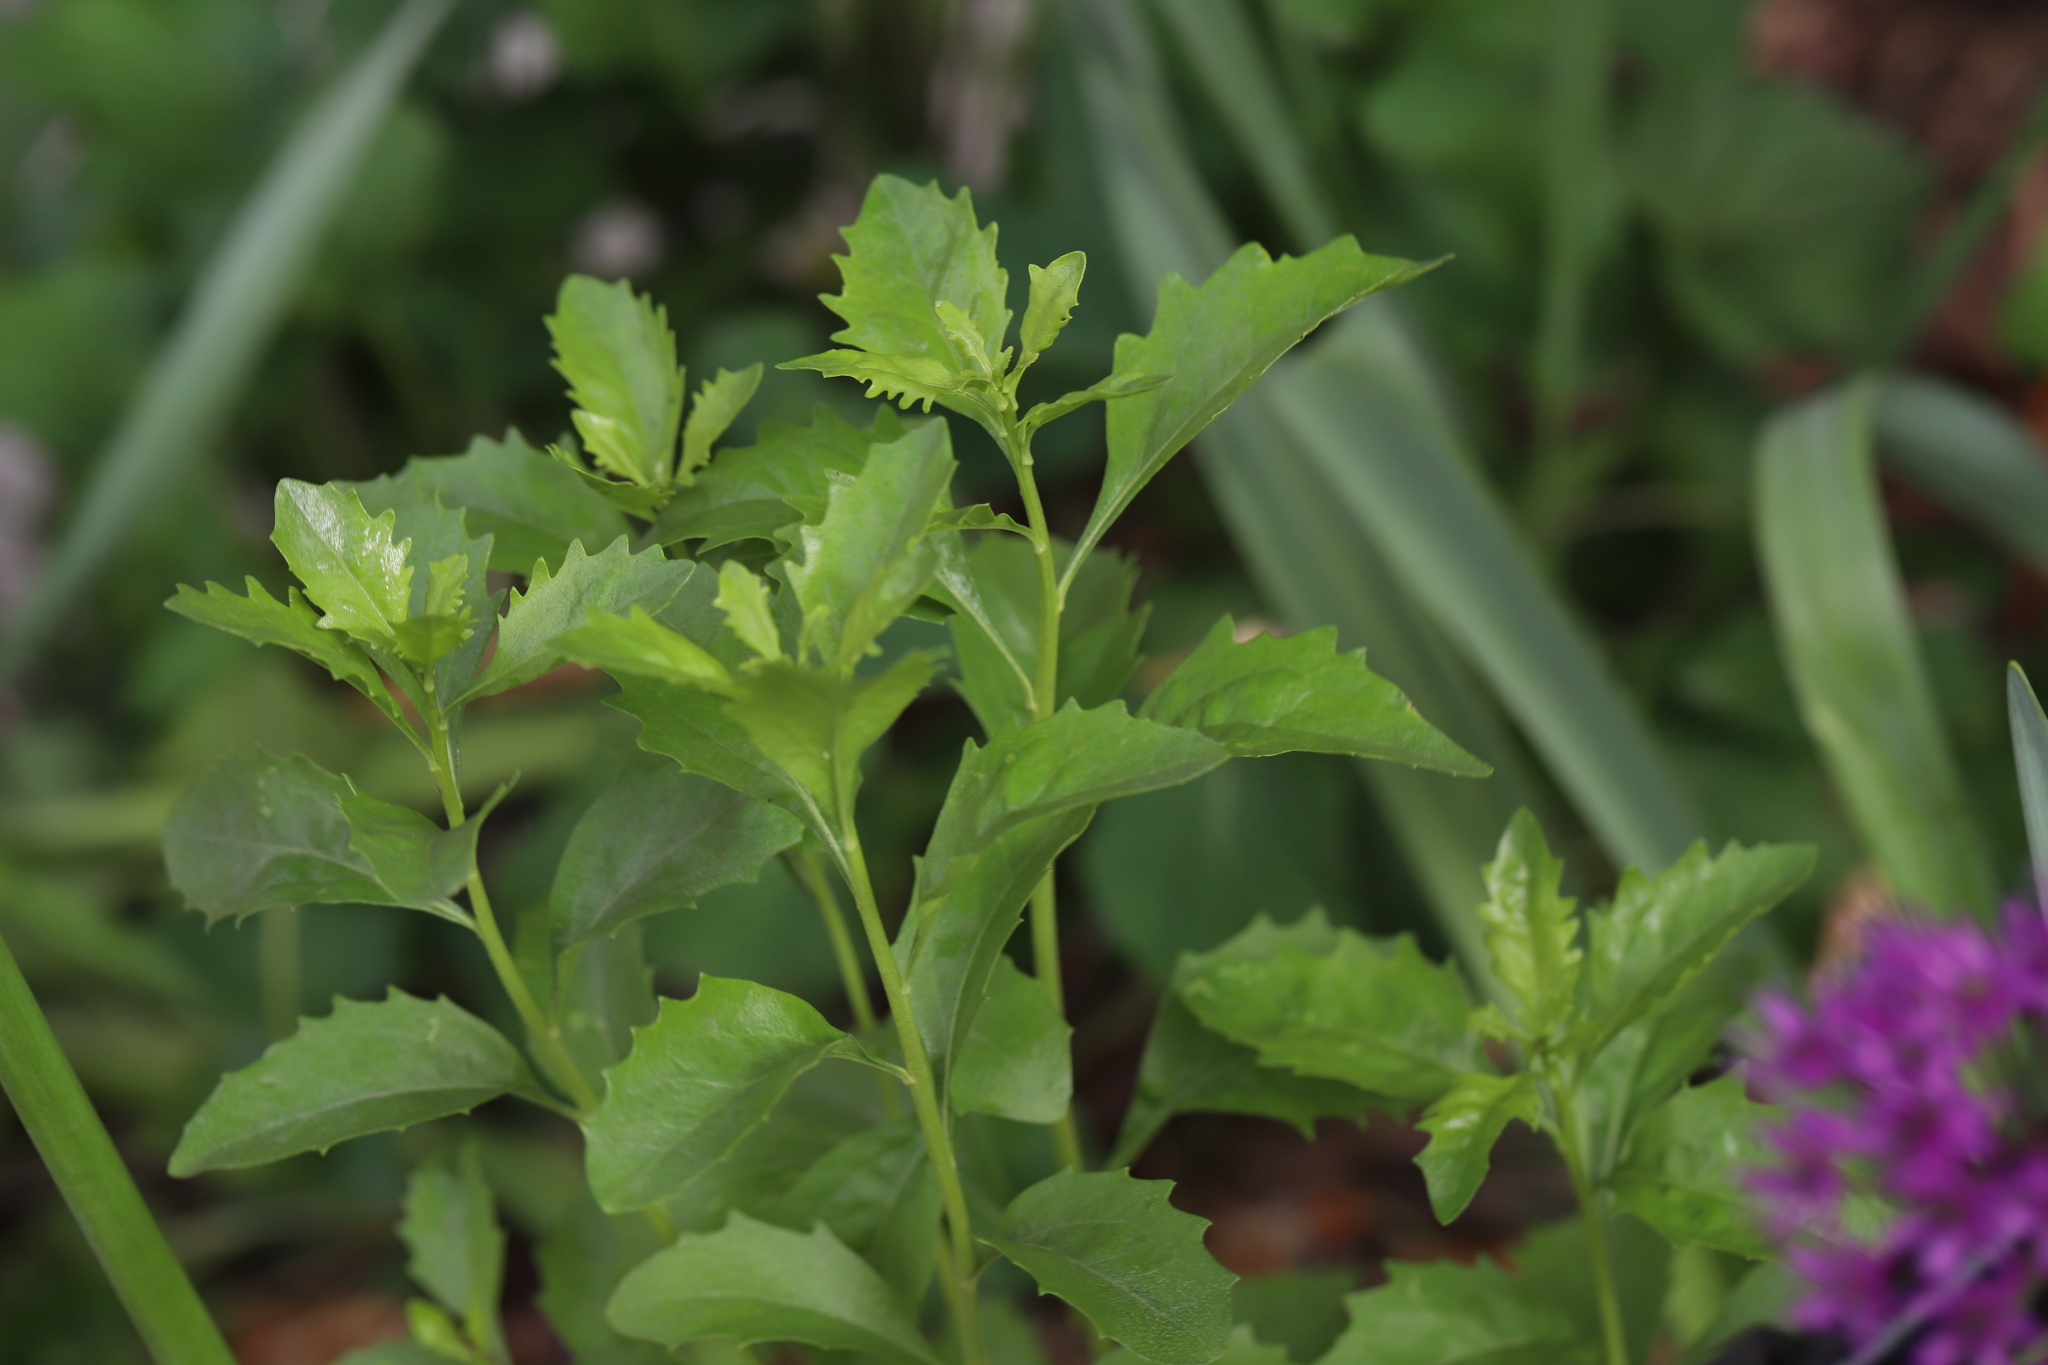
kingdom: Plantae
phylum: Tracheophyta
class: Magnoliopsida
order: Asterales
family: Asteraceae
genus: Baccharis
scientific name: Baccharis halimifolia
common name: Eastern baccharis
